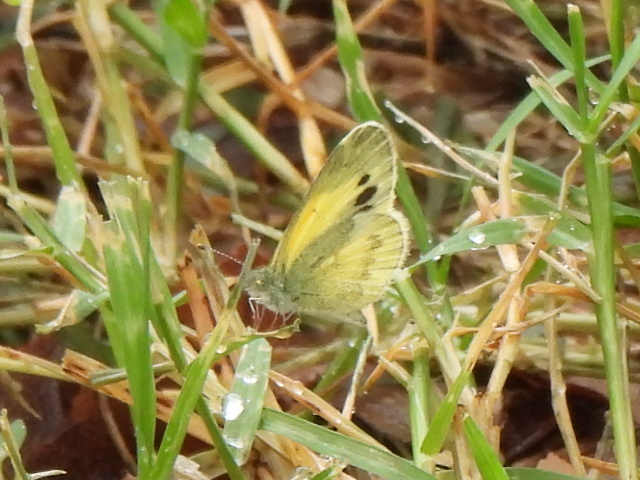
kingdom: Animalia
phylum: Arthropoda
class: Insecta
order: Lepidoptera
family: Pieridae
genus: Nathalis
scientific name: Nathalis iole
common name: Dainty sulphur
